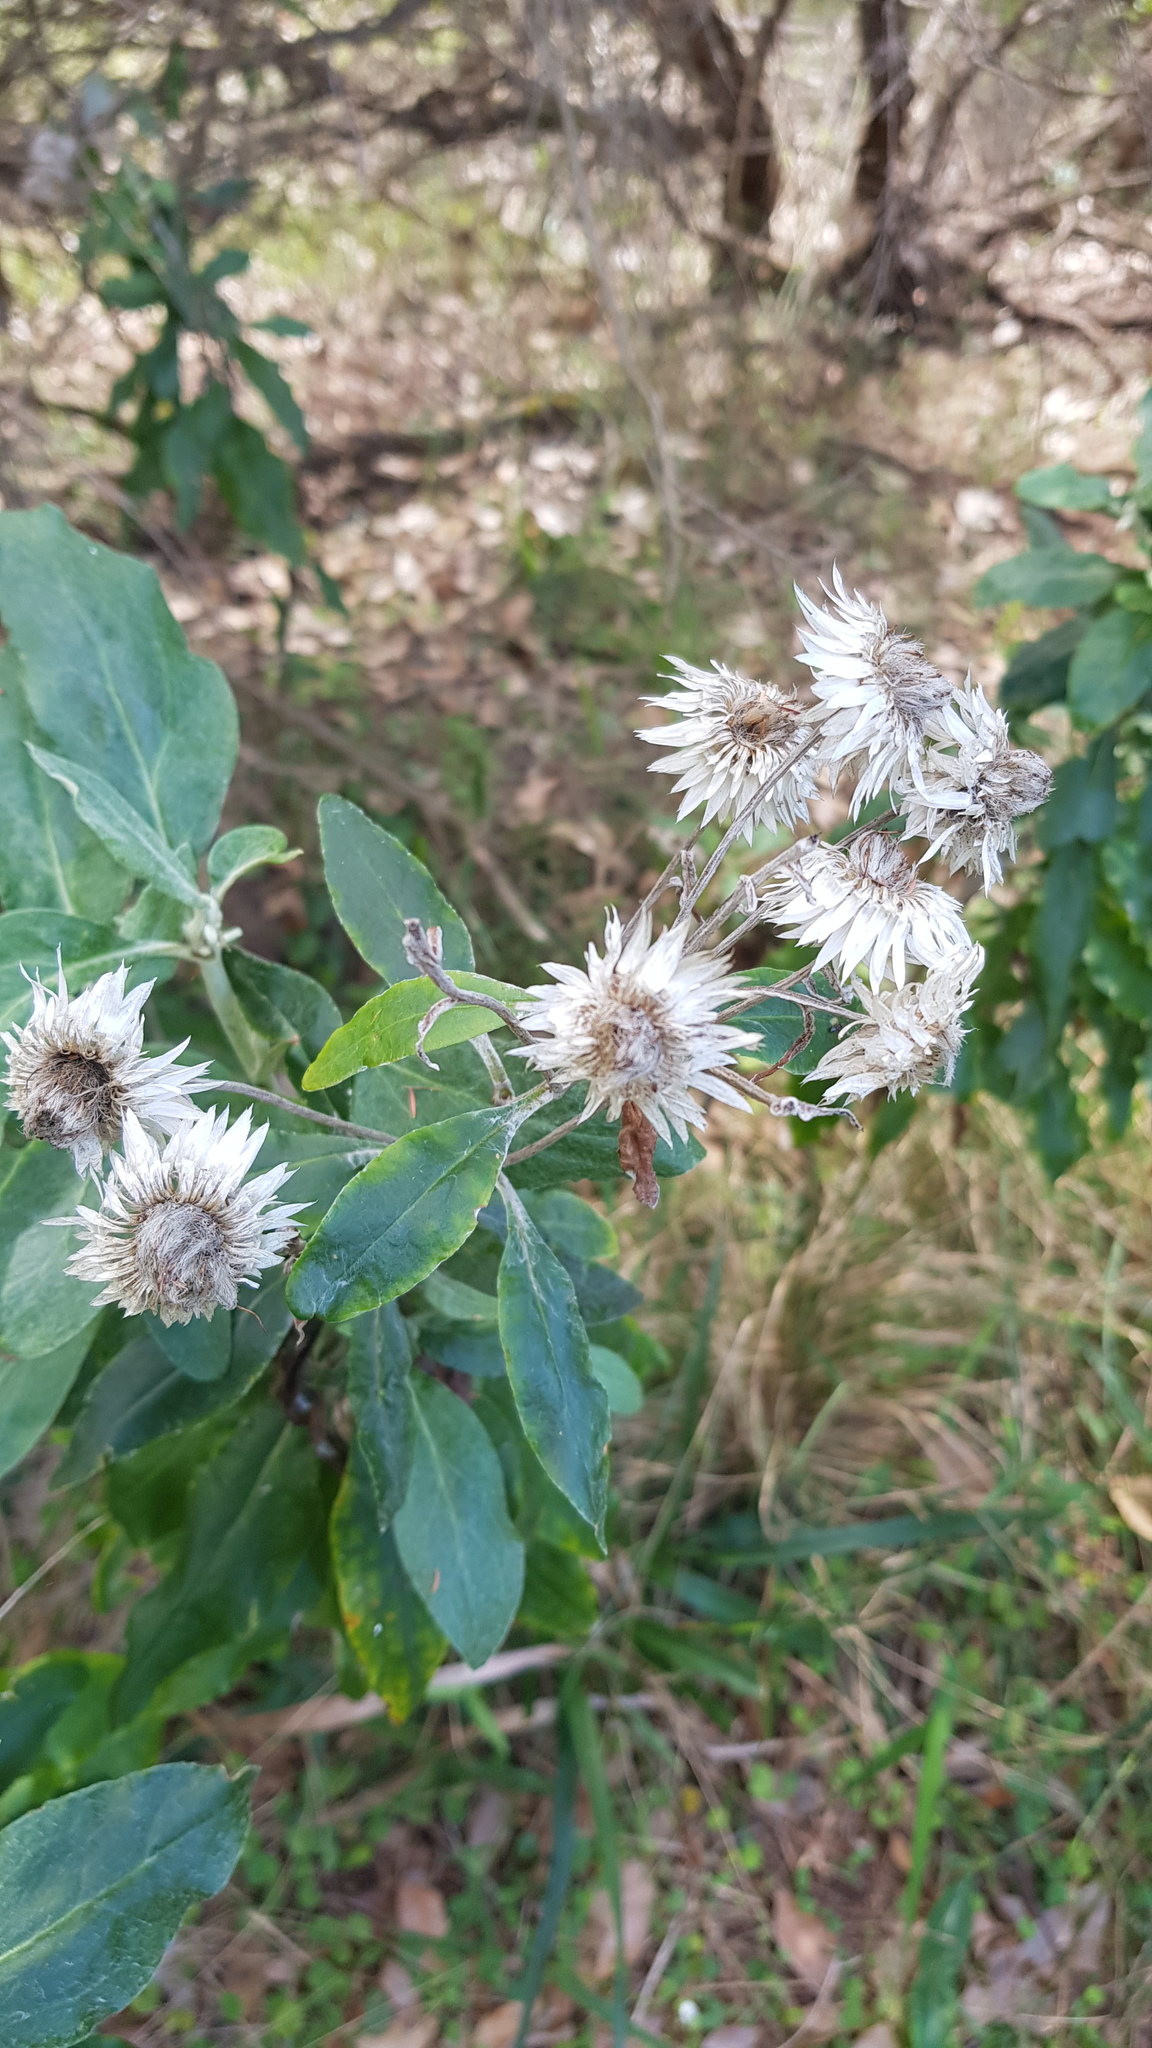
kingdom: Plantae
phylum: Tracheophyta
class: Magnoliopsida
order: Asterales
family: Asteraceae
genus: Leucozoma
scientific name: Leucozoma elatum
